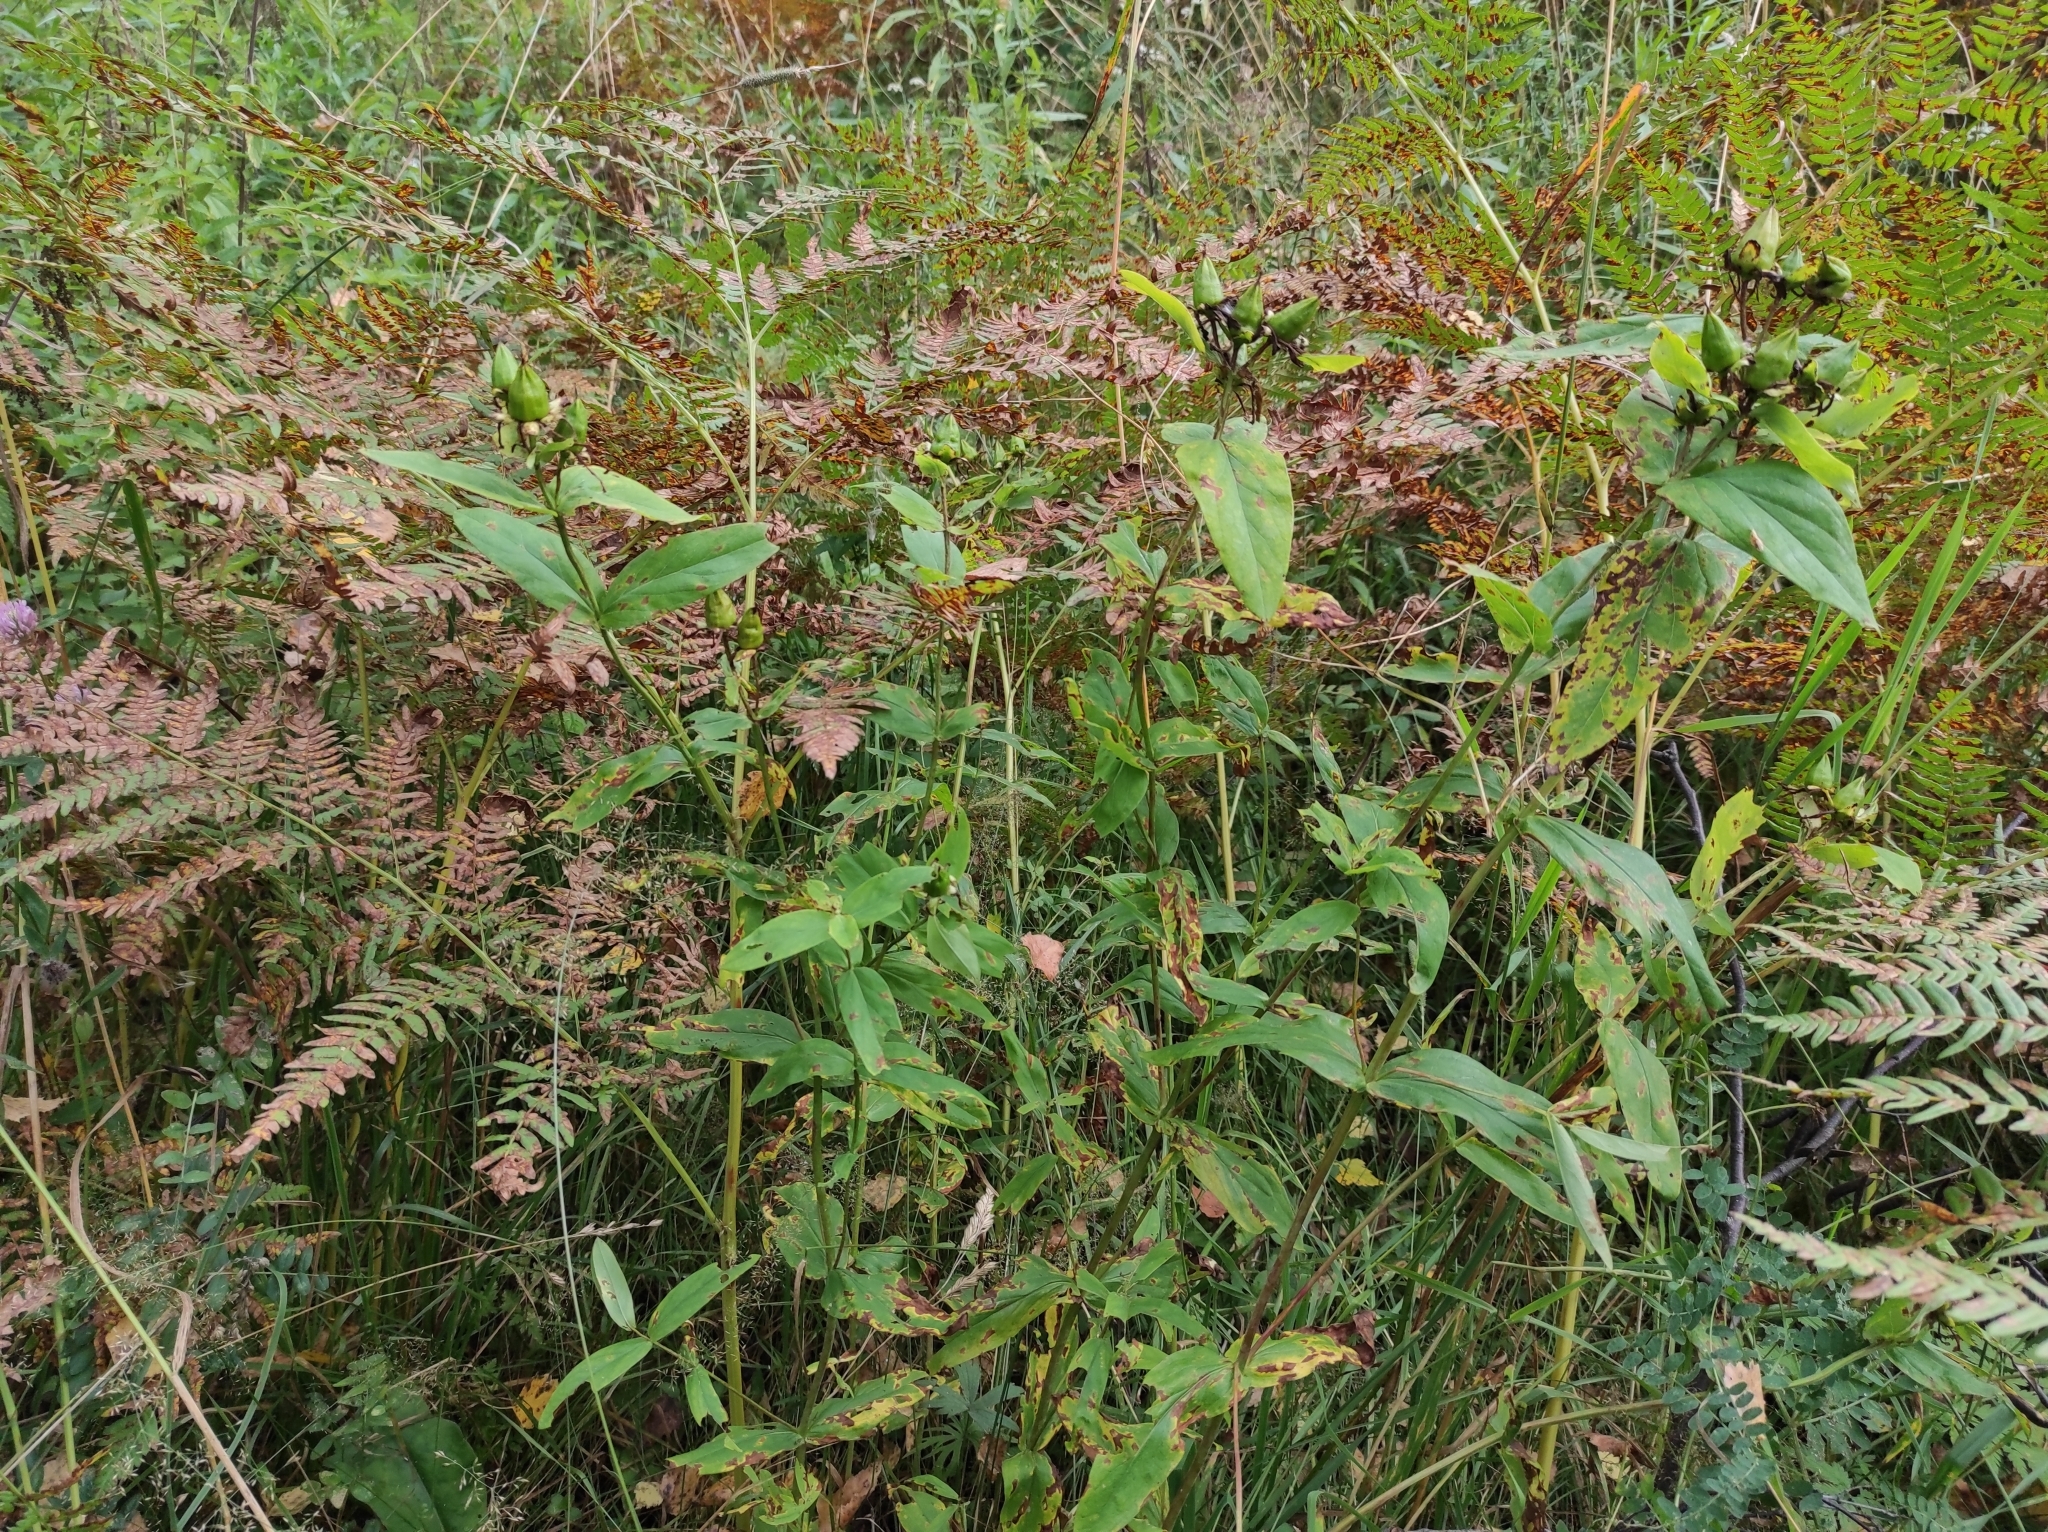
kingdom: Plantae
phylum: Tracheophyta
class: Magnoliopsida
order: Malpighiales
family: Hypericaceae
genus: Hypericum
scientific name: Hypericum ascyron
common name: Giant st. john's-wort
